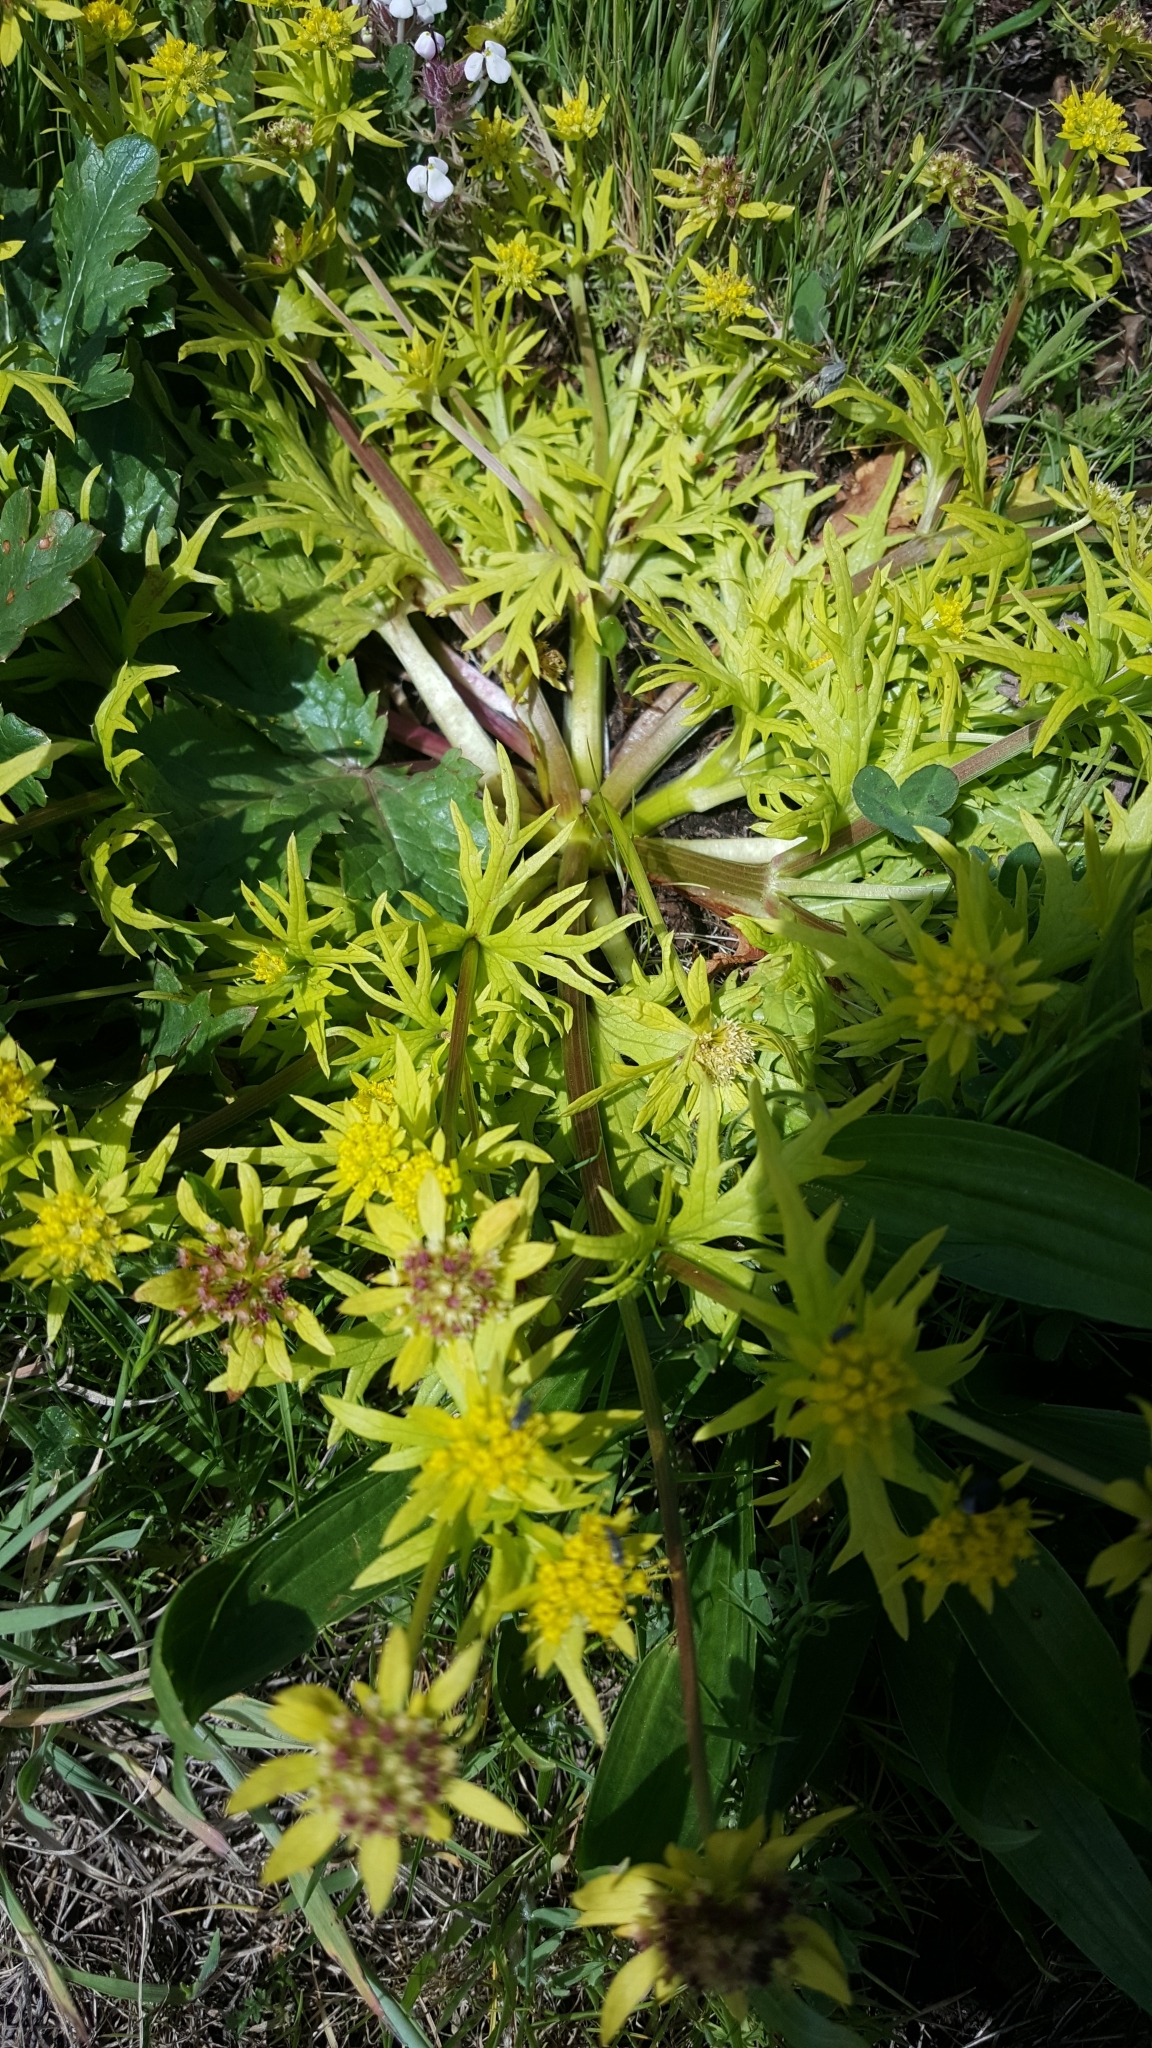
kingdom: Plantae
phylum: Tracheophyta
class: Magnoliopsida
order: Apiales
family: Apiaceae
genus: Sanicula
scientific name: Sanicula arctopoides
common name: Footsteps-of-spring
